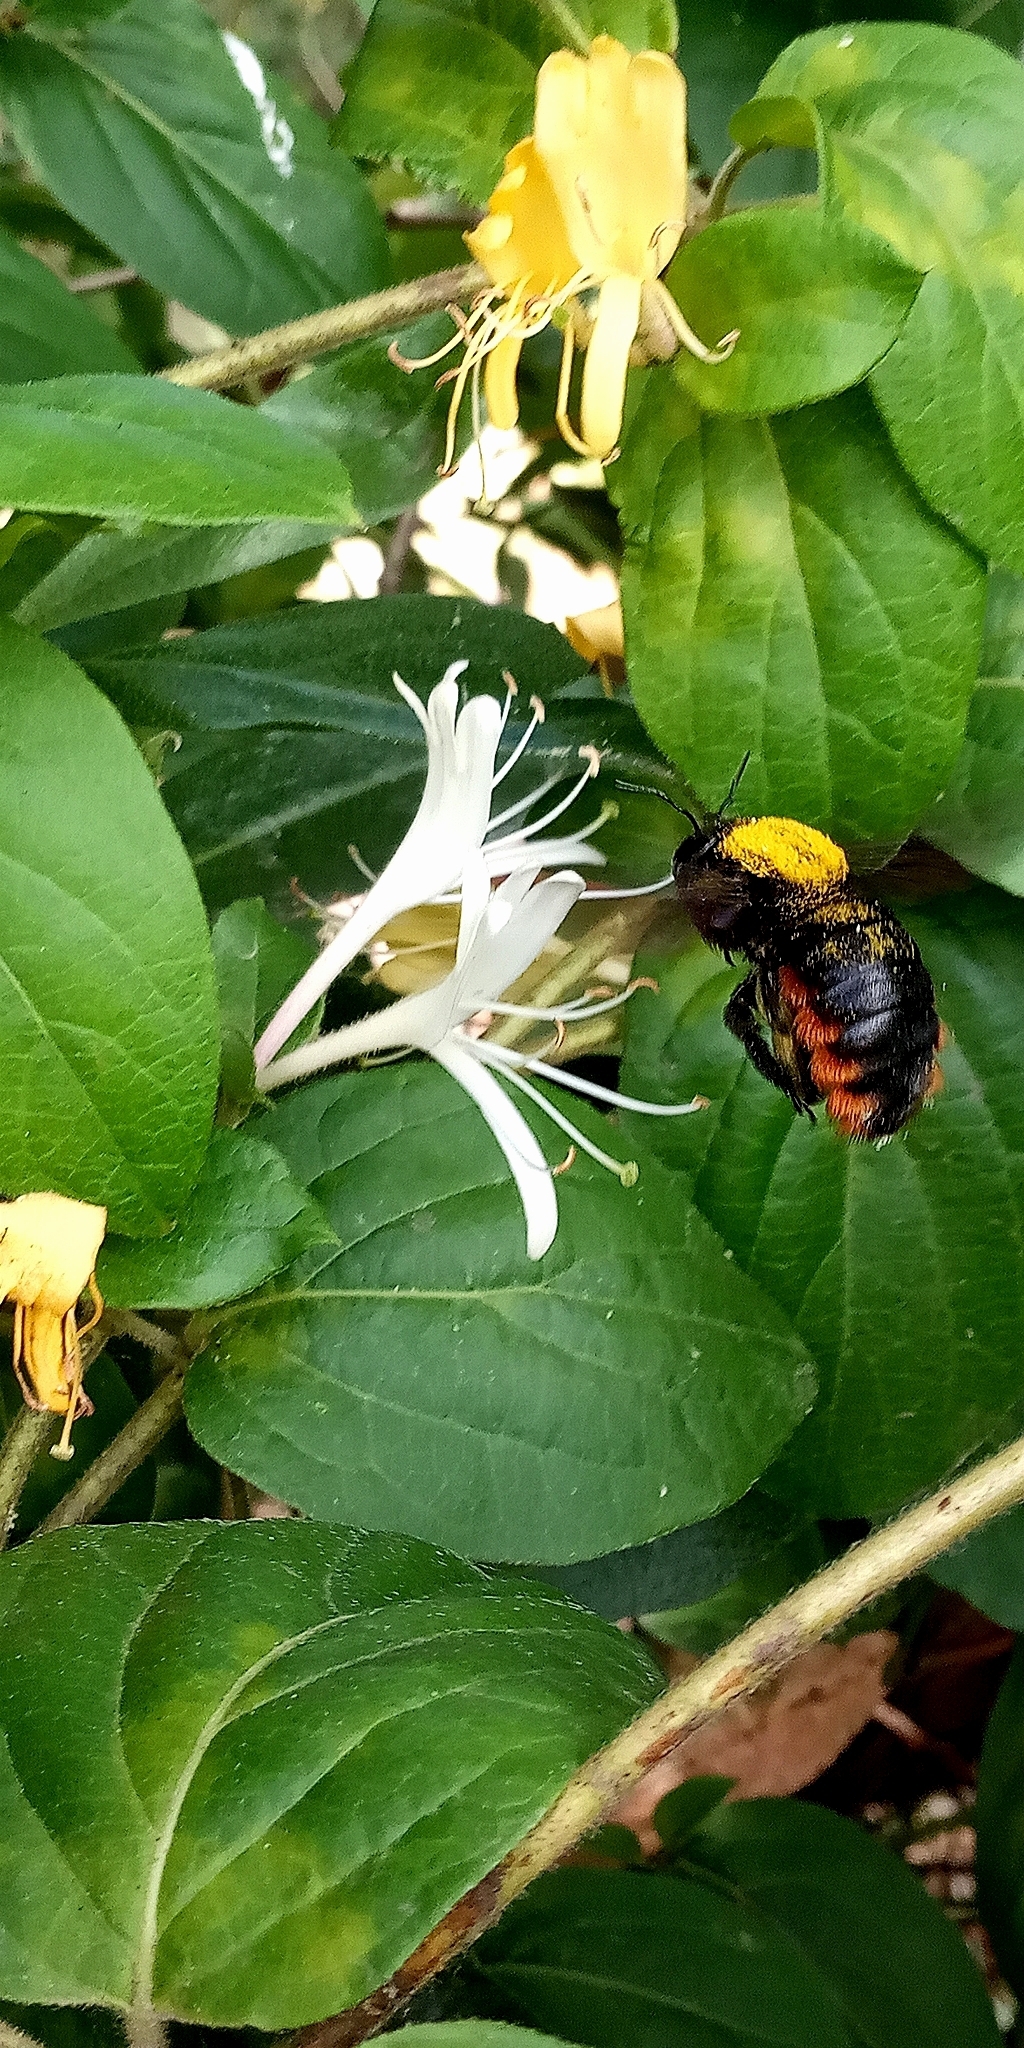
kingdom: Animalia
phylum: Arthropoda
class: Insecta
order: Hymenoptera
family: Apidae
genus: Xylocopa
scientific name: Xylocopa augusti
